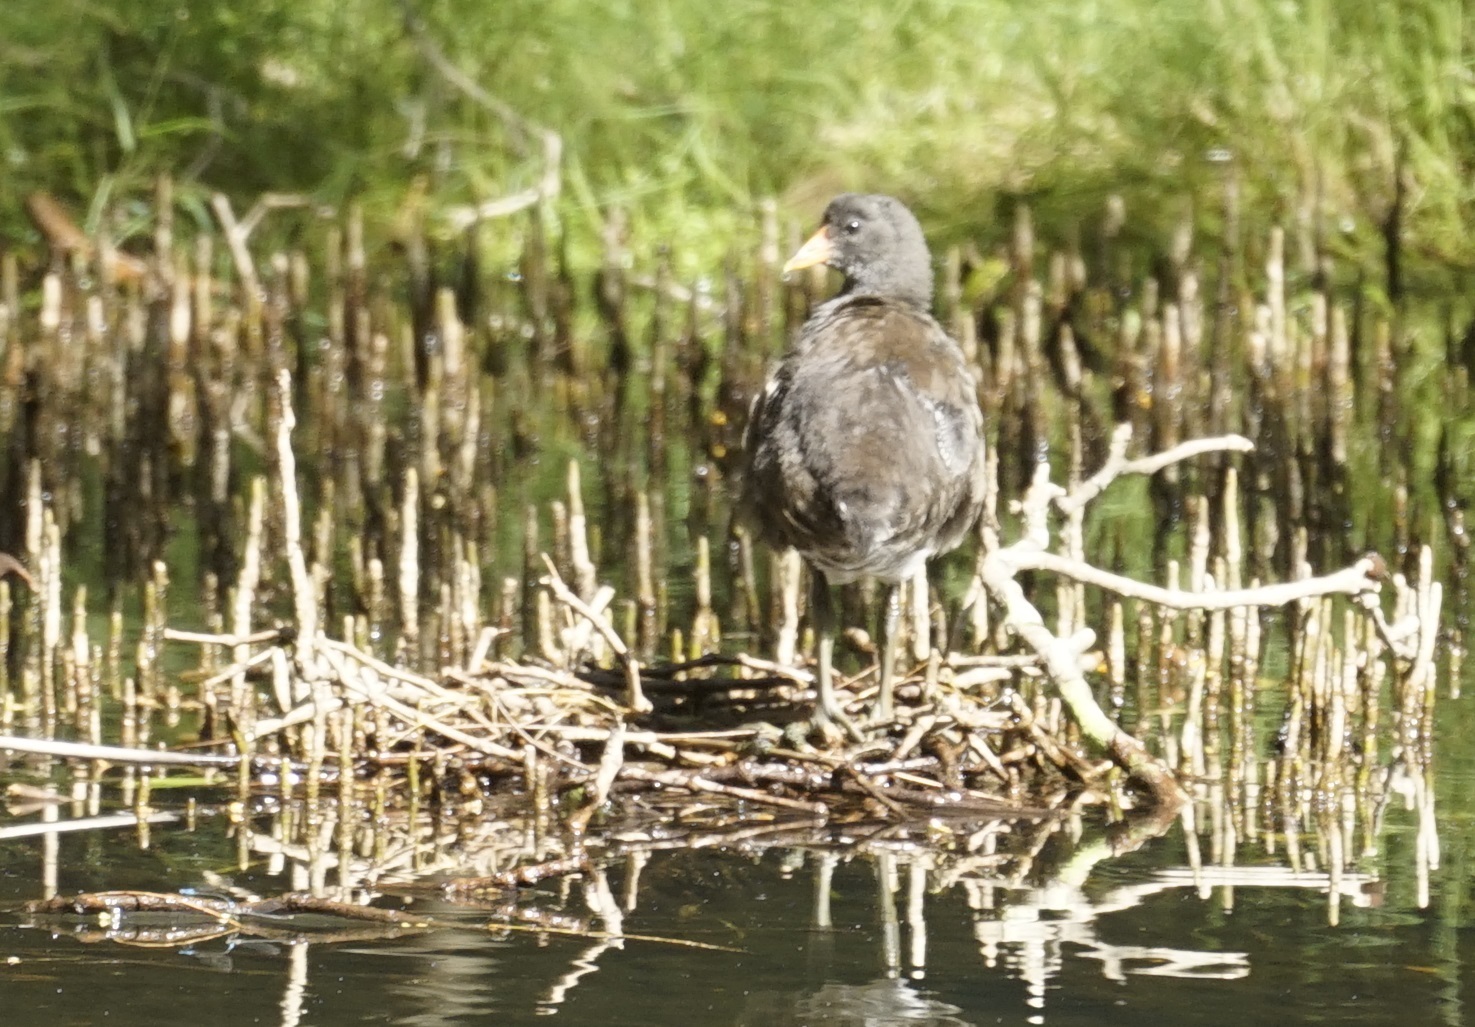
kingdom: Animalia
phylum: Chordata
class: Aves
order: Gruiformes
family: Rallidae
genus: Gallinula
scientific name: Gallinula tenebrosa
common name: Dusky moorhen
